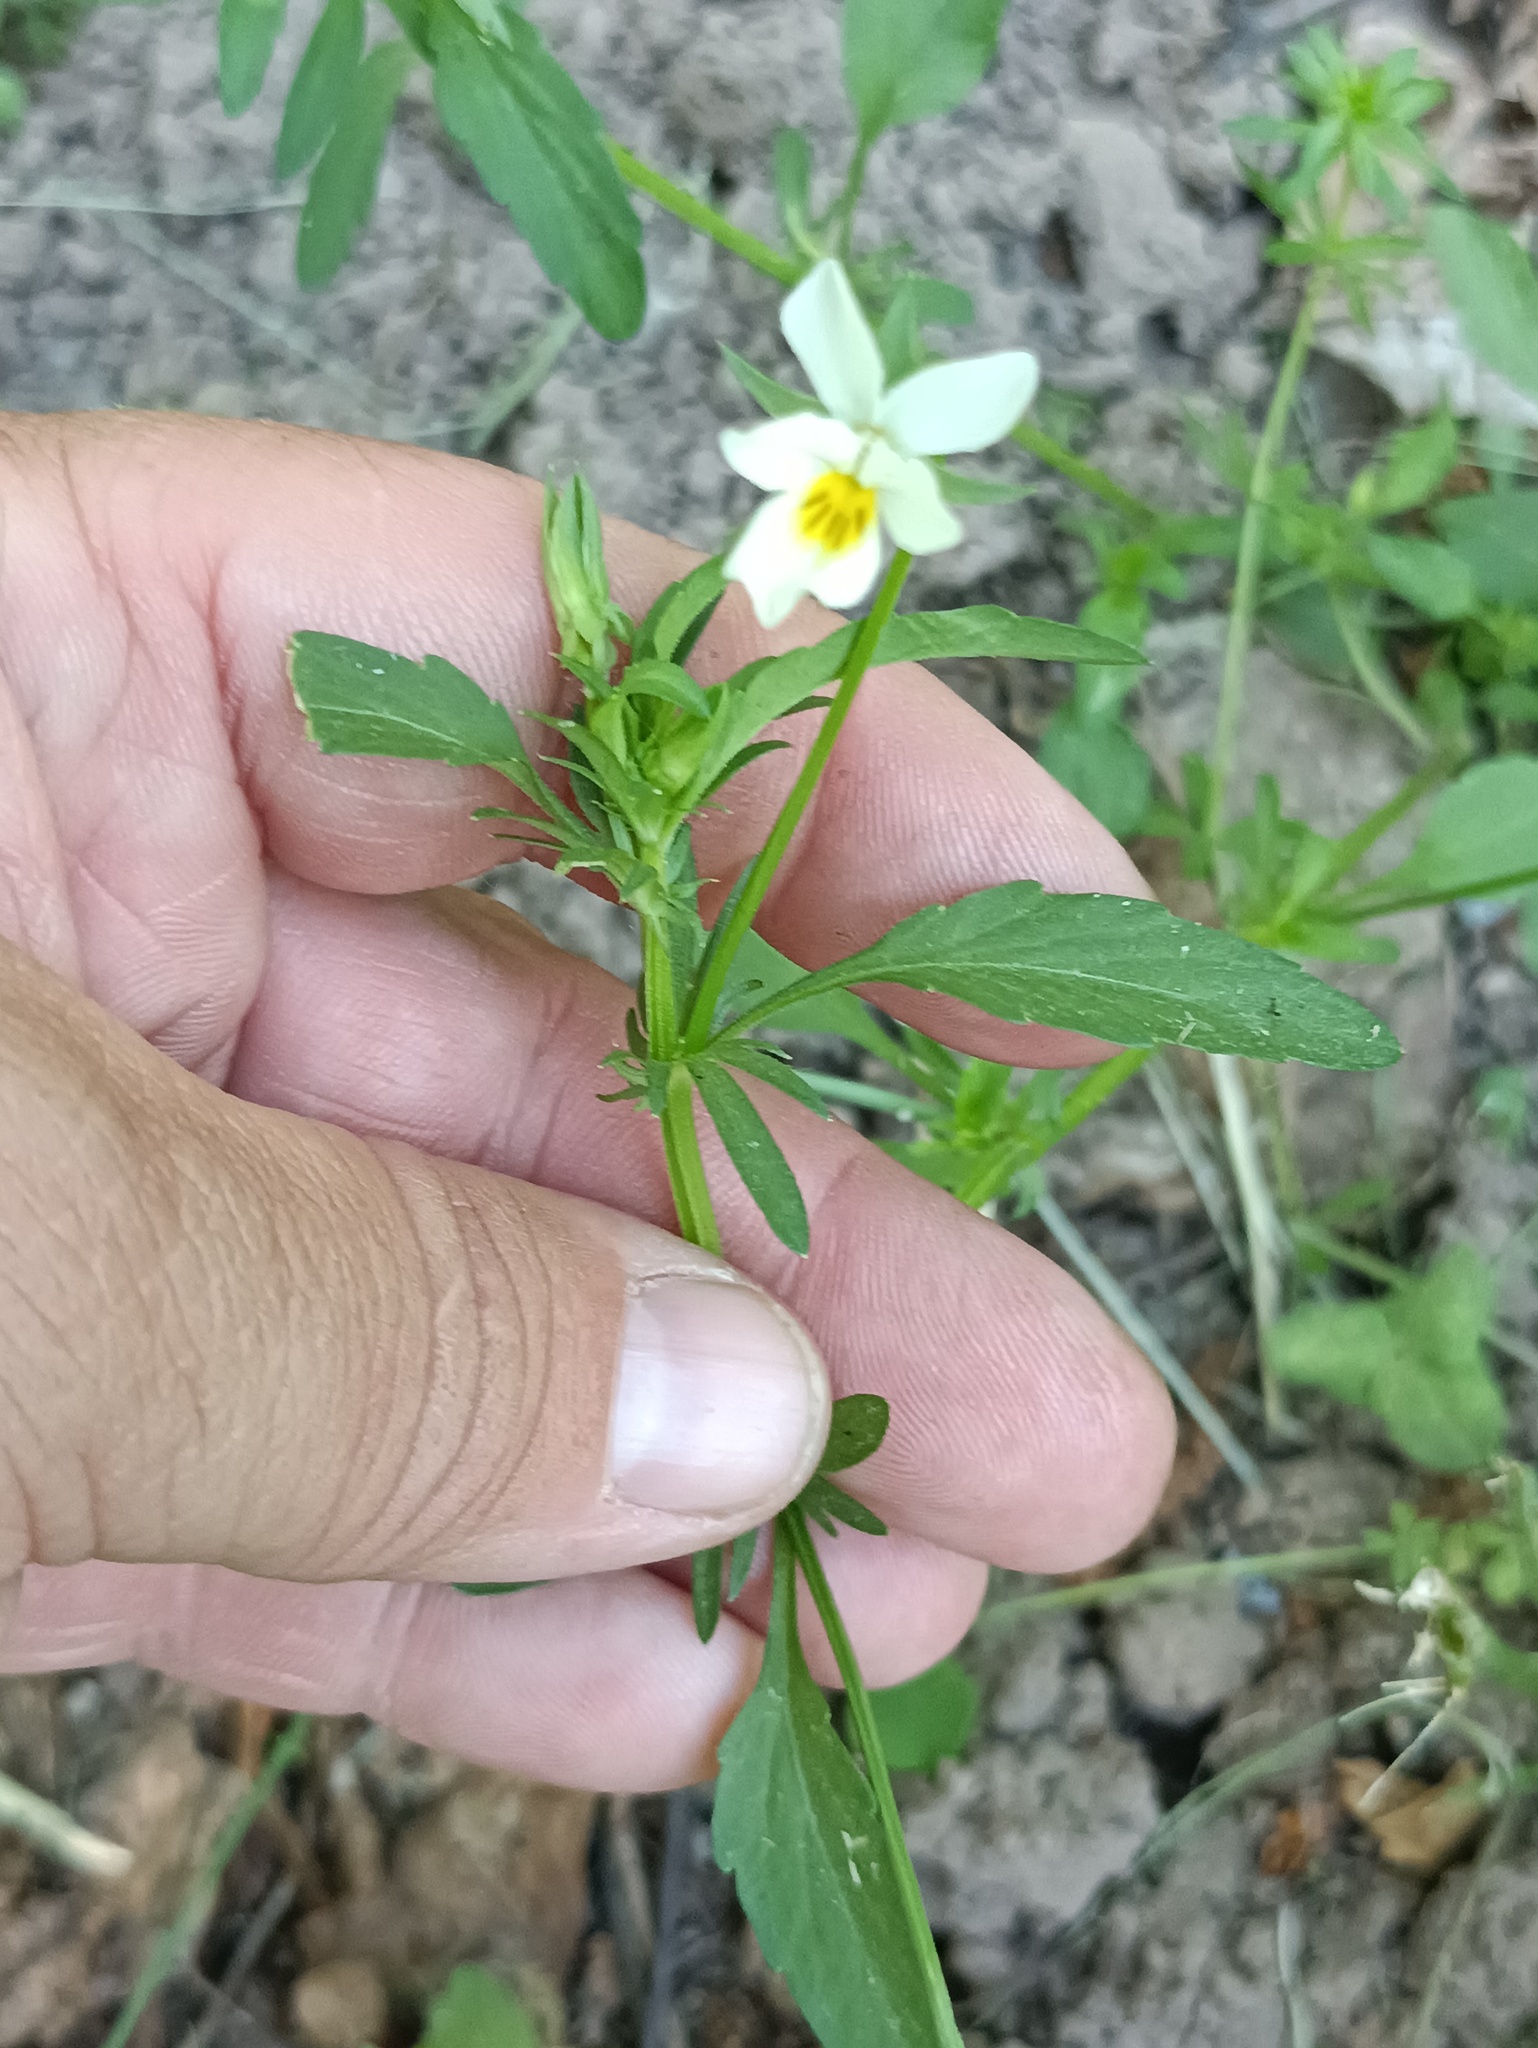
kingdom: Plantae
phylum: Tracheophyta
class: Magnoliopsida
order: Malpighiales
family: Violaceae
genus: Viola
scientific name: Viola arvensis
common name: Field pansy
